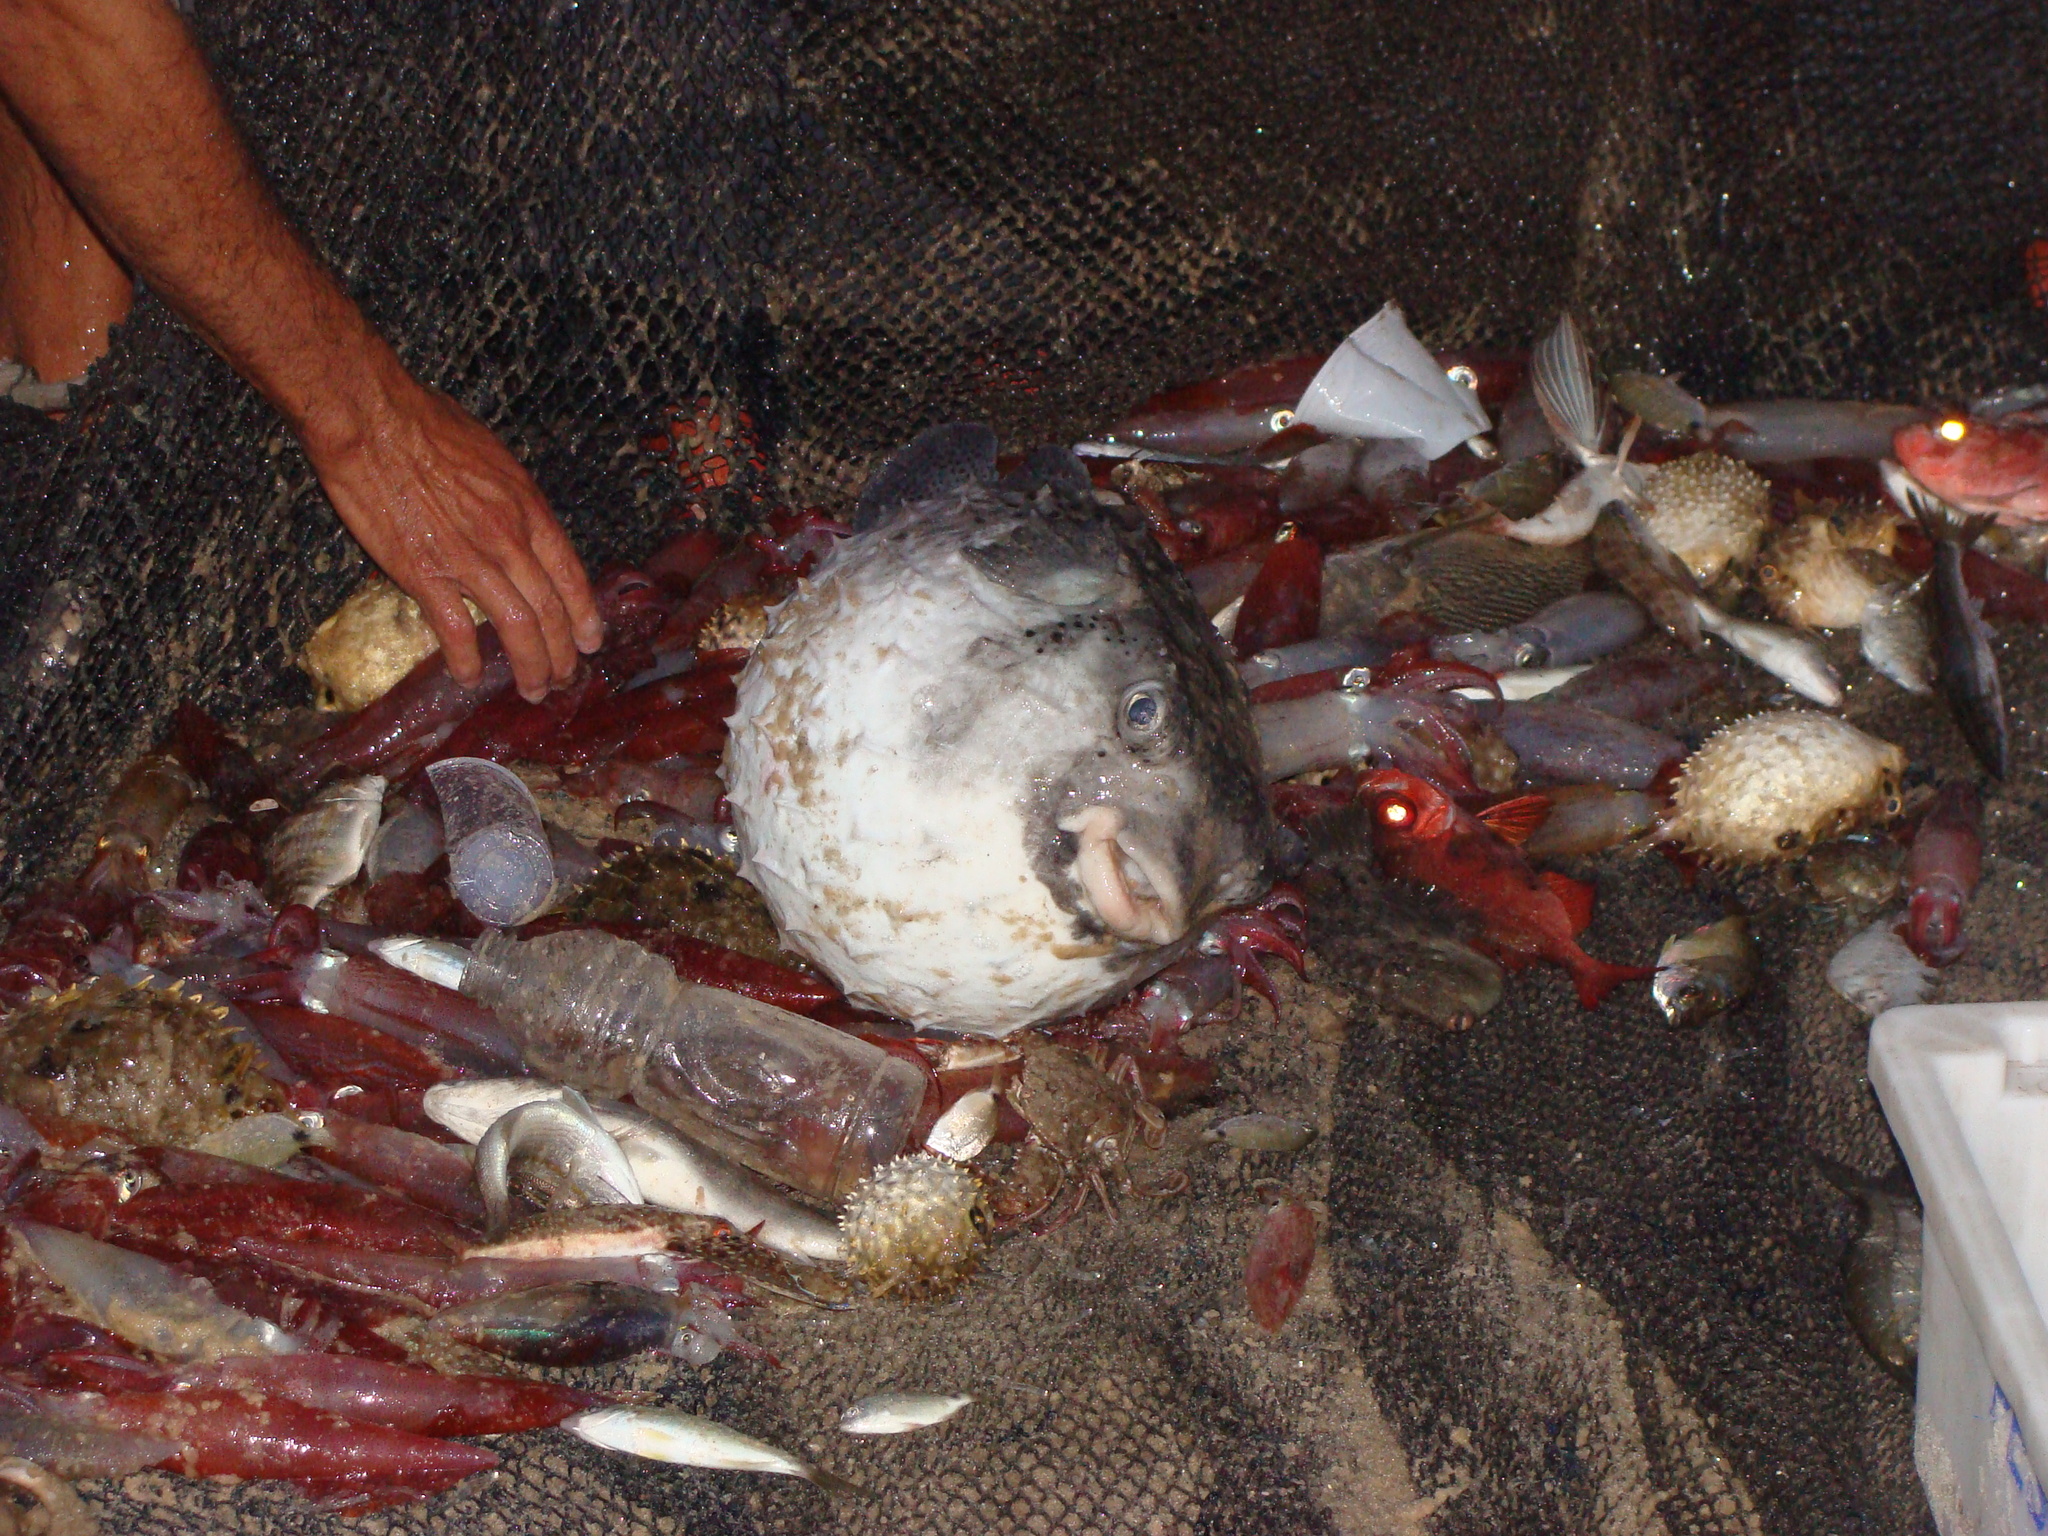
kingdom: Animalia
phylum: Chordata
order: Tetraodontiformes
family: Diodontidae
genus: Chilomycterus
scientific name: Chilomycterus reticulatus
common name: Spotfin burrfish
